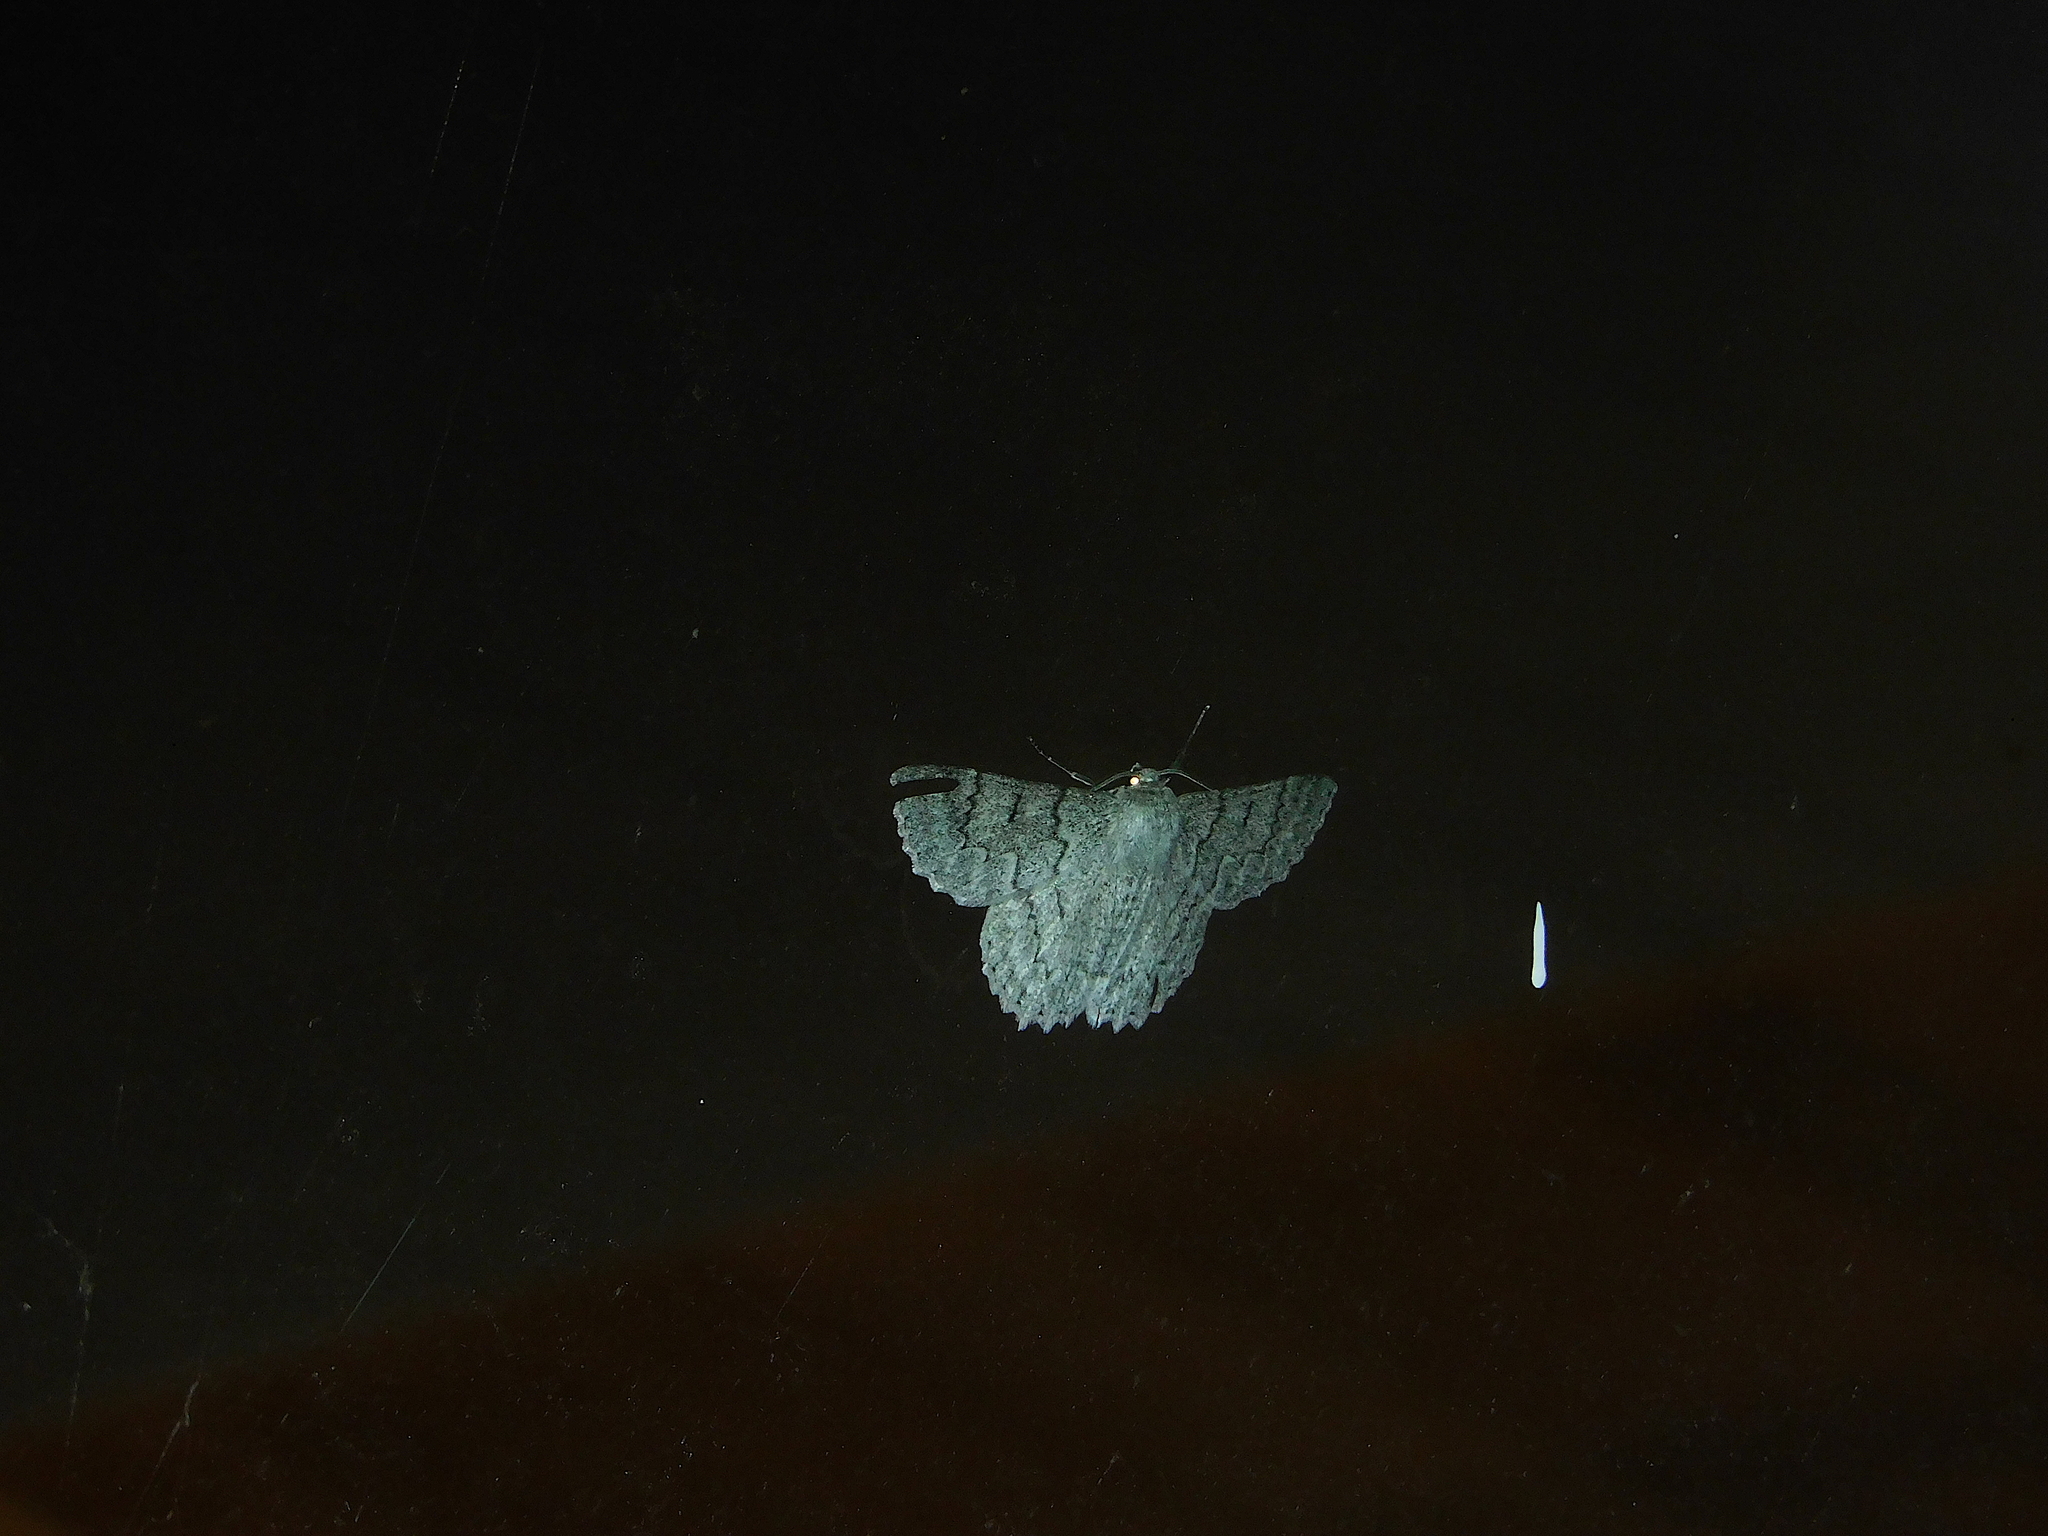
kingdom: Animalia
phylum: Arthropoda
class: Insecta
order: Lepidoptera
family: Geometridae
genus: Crypsiphona
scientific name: Crypsiphona
